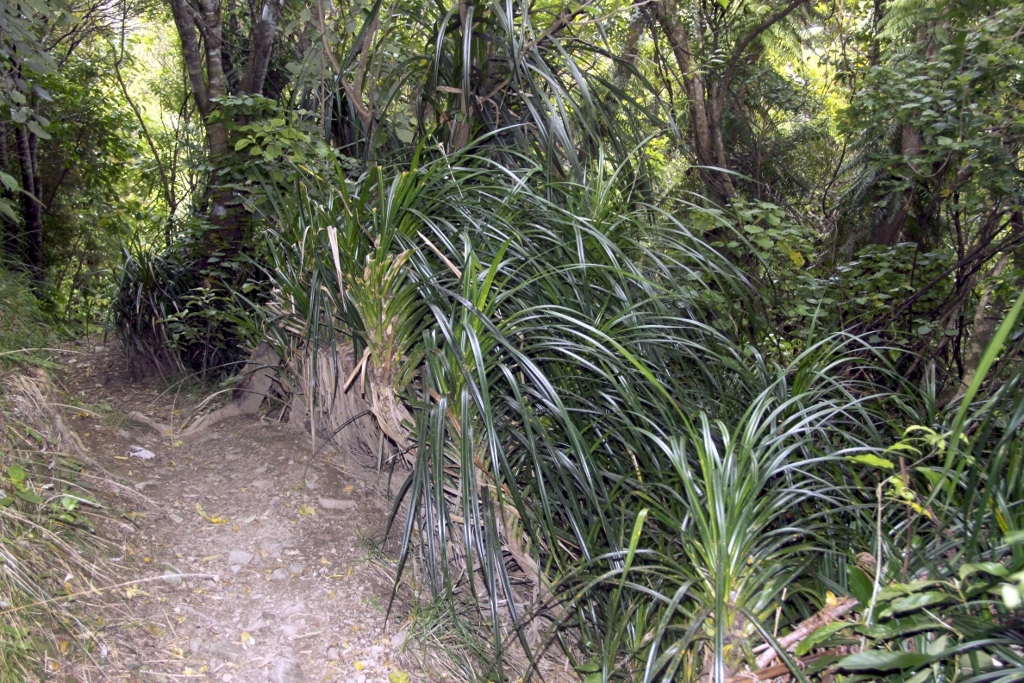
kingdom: Plantae
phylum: Tracheophyta
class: Liliopsida
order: Pandanales
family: Pandanaceae
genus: Freycinetia
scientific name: Freycinetia banksii
